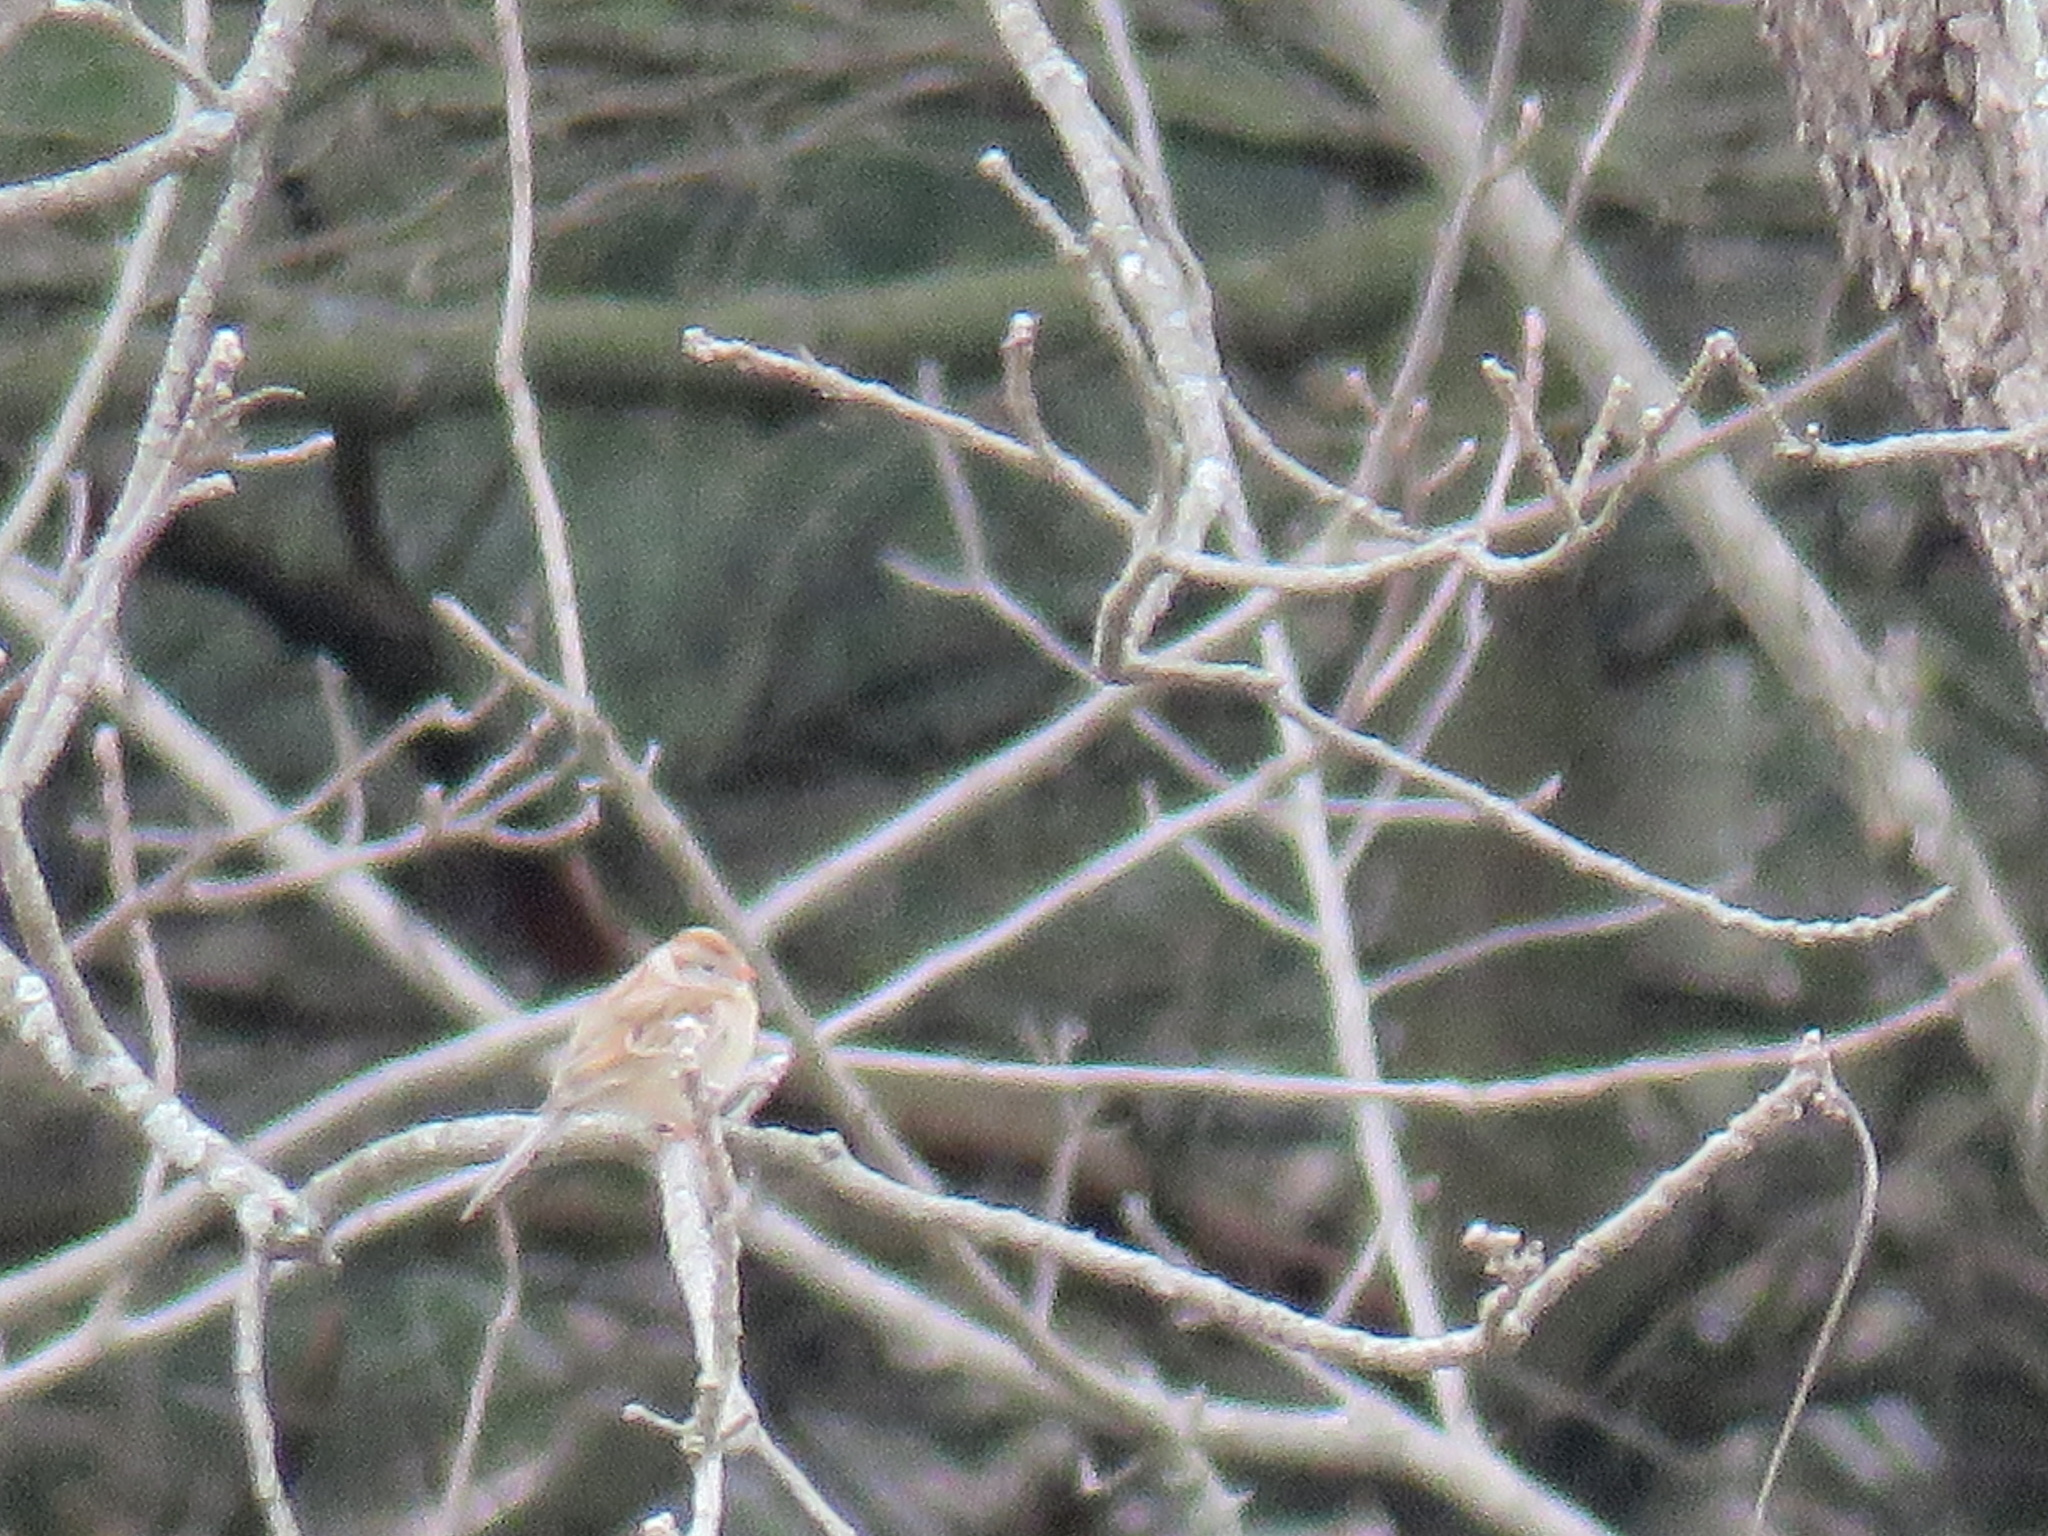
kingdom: Animalia
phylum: Chordata
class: Aves
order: Passeriformes
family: Passerellidae
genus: Spizella
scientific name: Spizella pusilla
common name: Field sparrow
